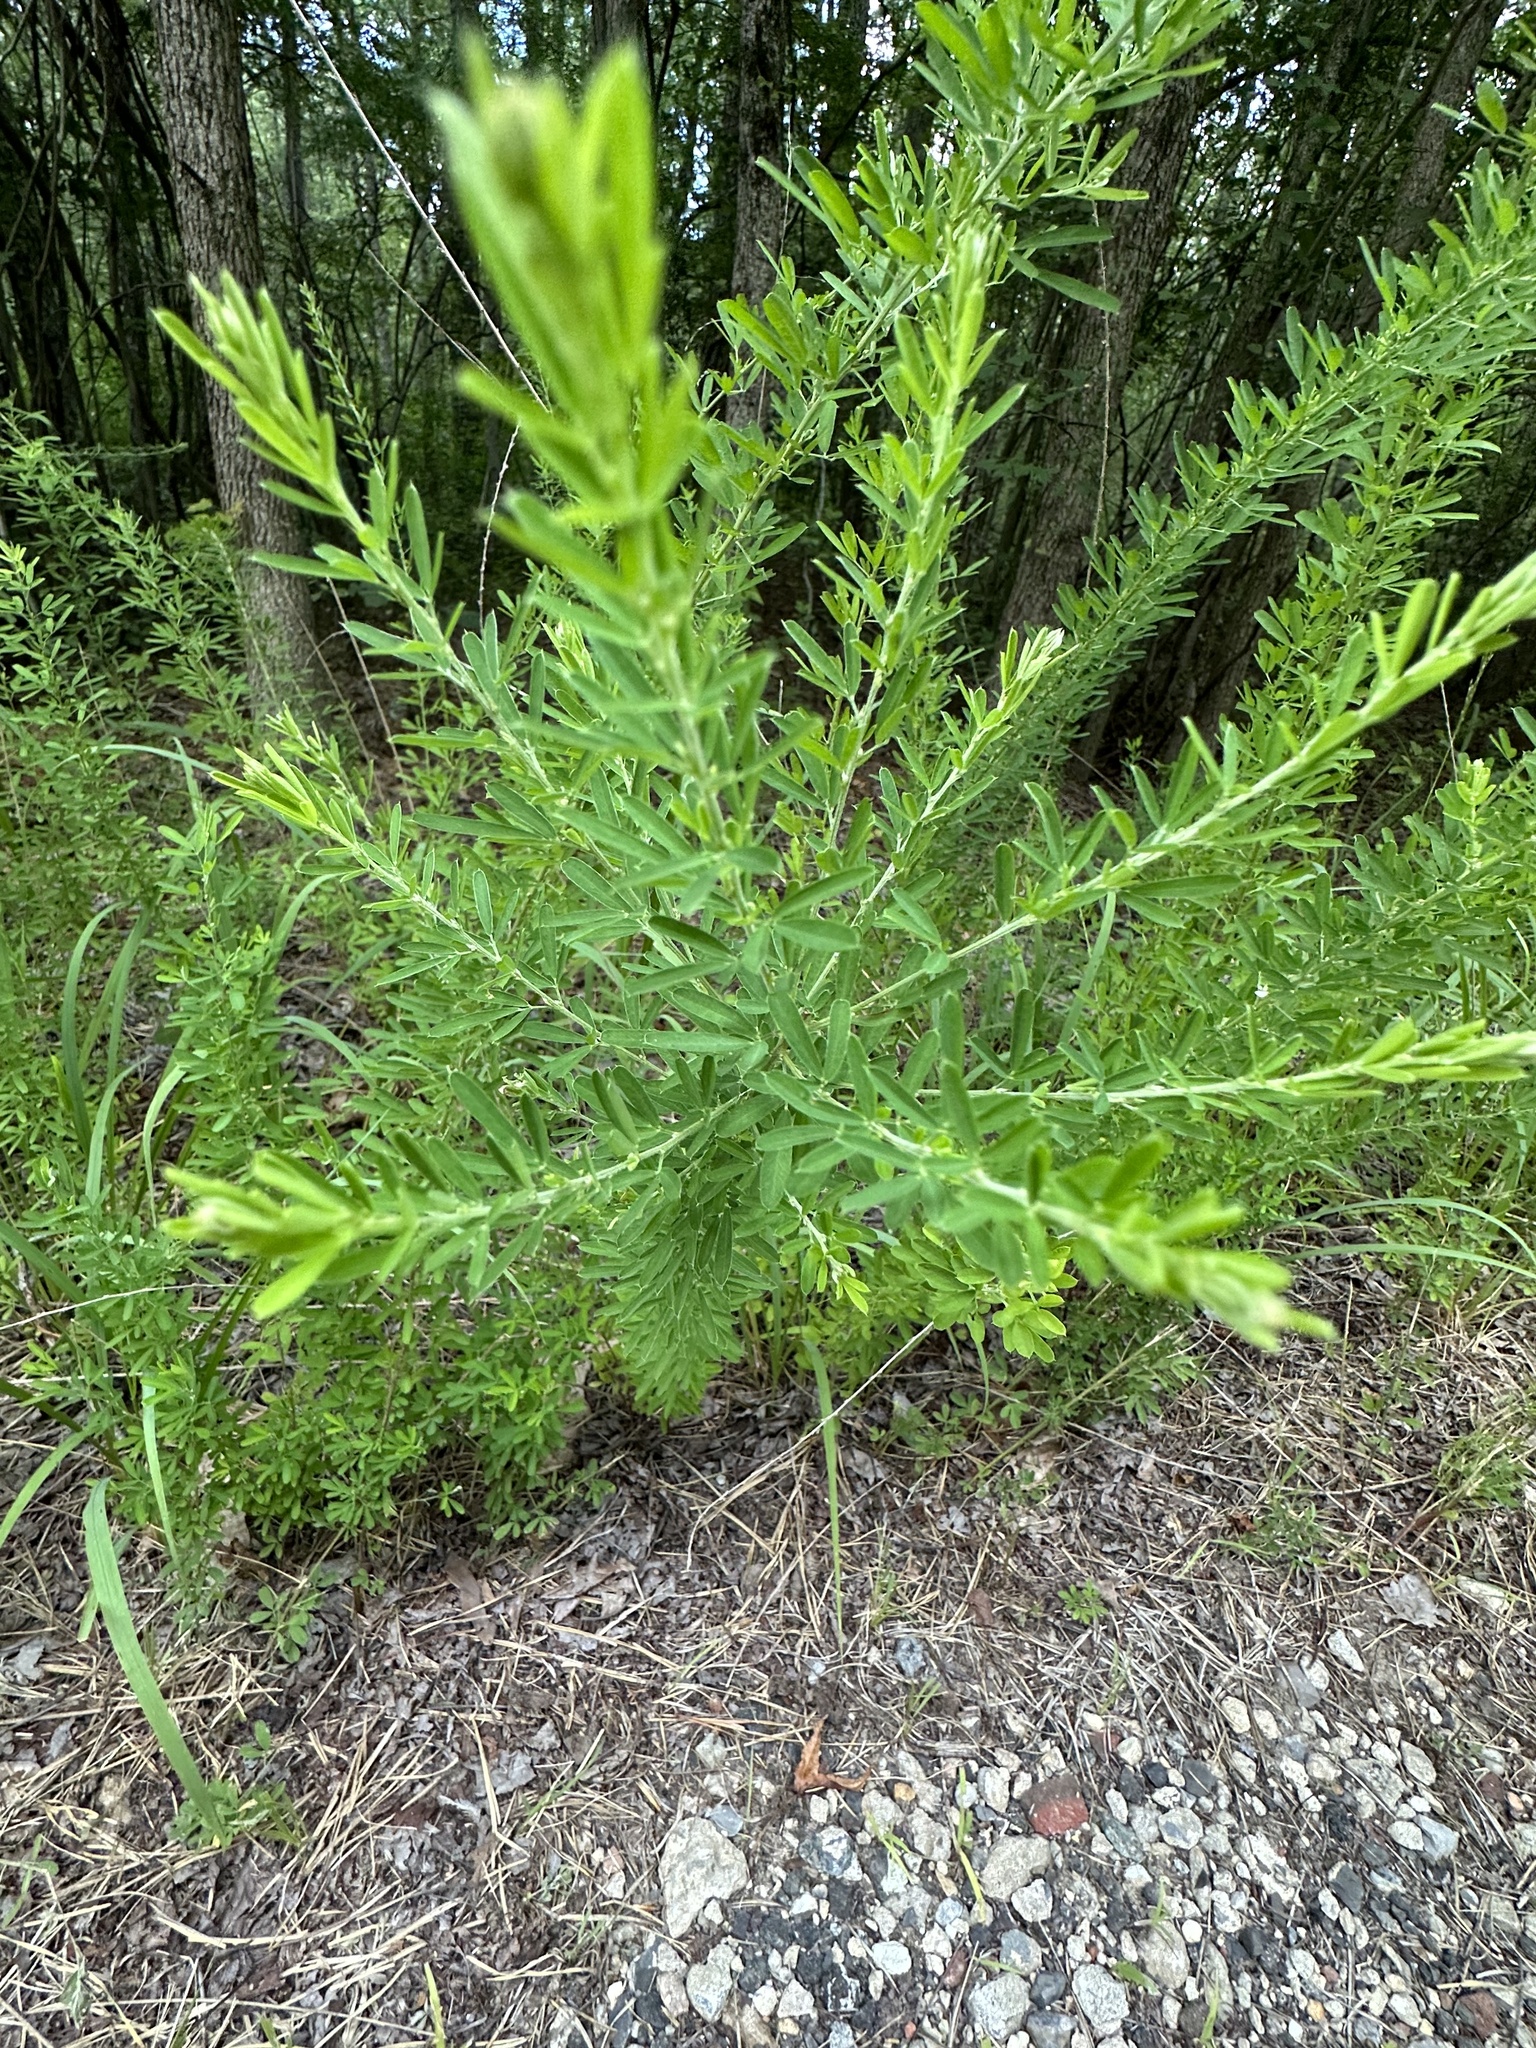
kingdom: Plantae
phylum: Tracheophyta
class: Magnoliopsida
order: Fabales
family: Fabaceae
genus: Lespedeza
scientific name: Lespedeza cuneata
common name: Chinese bush-clover
